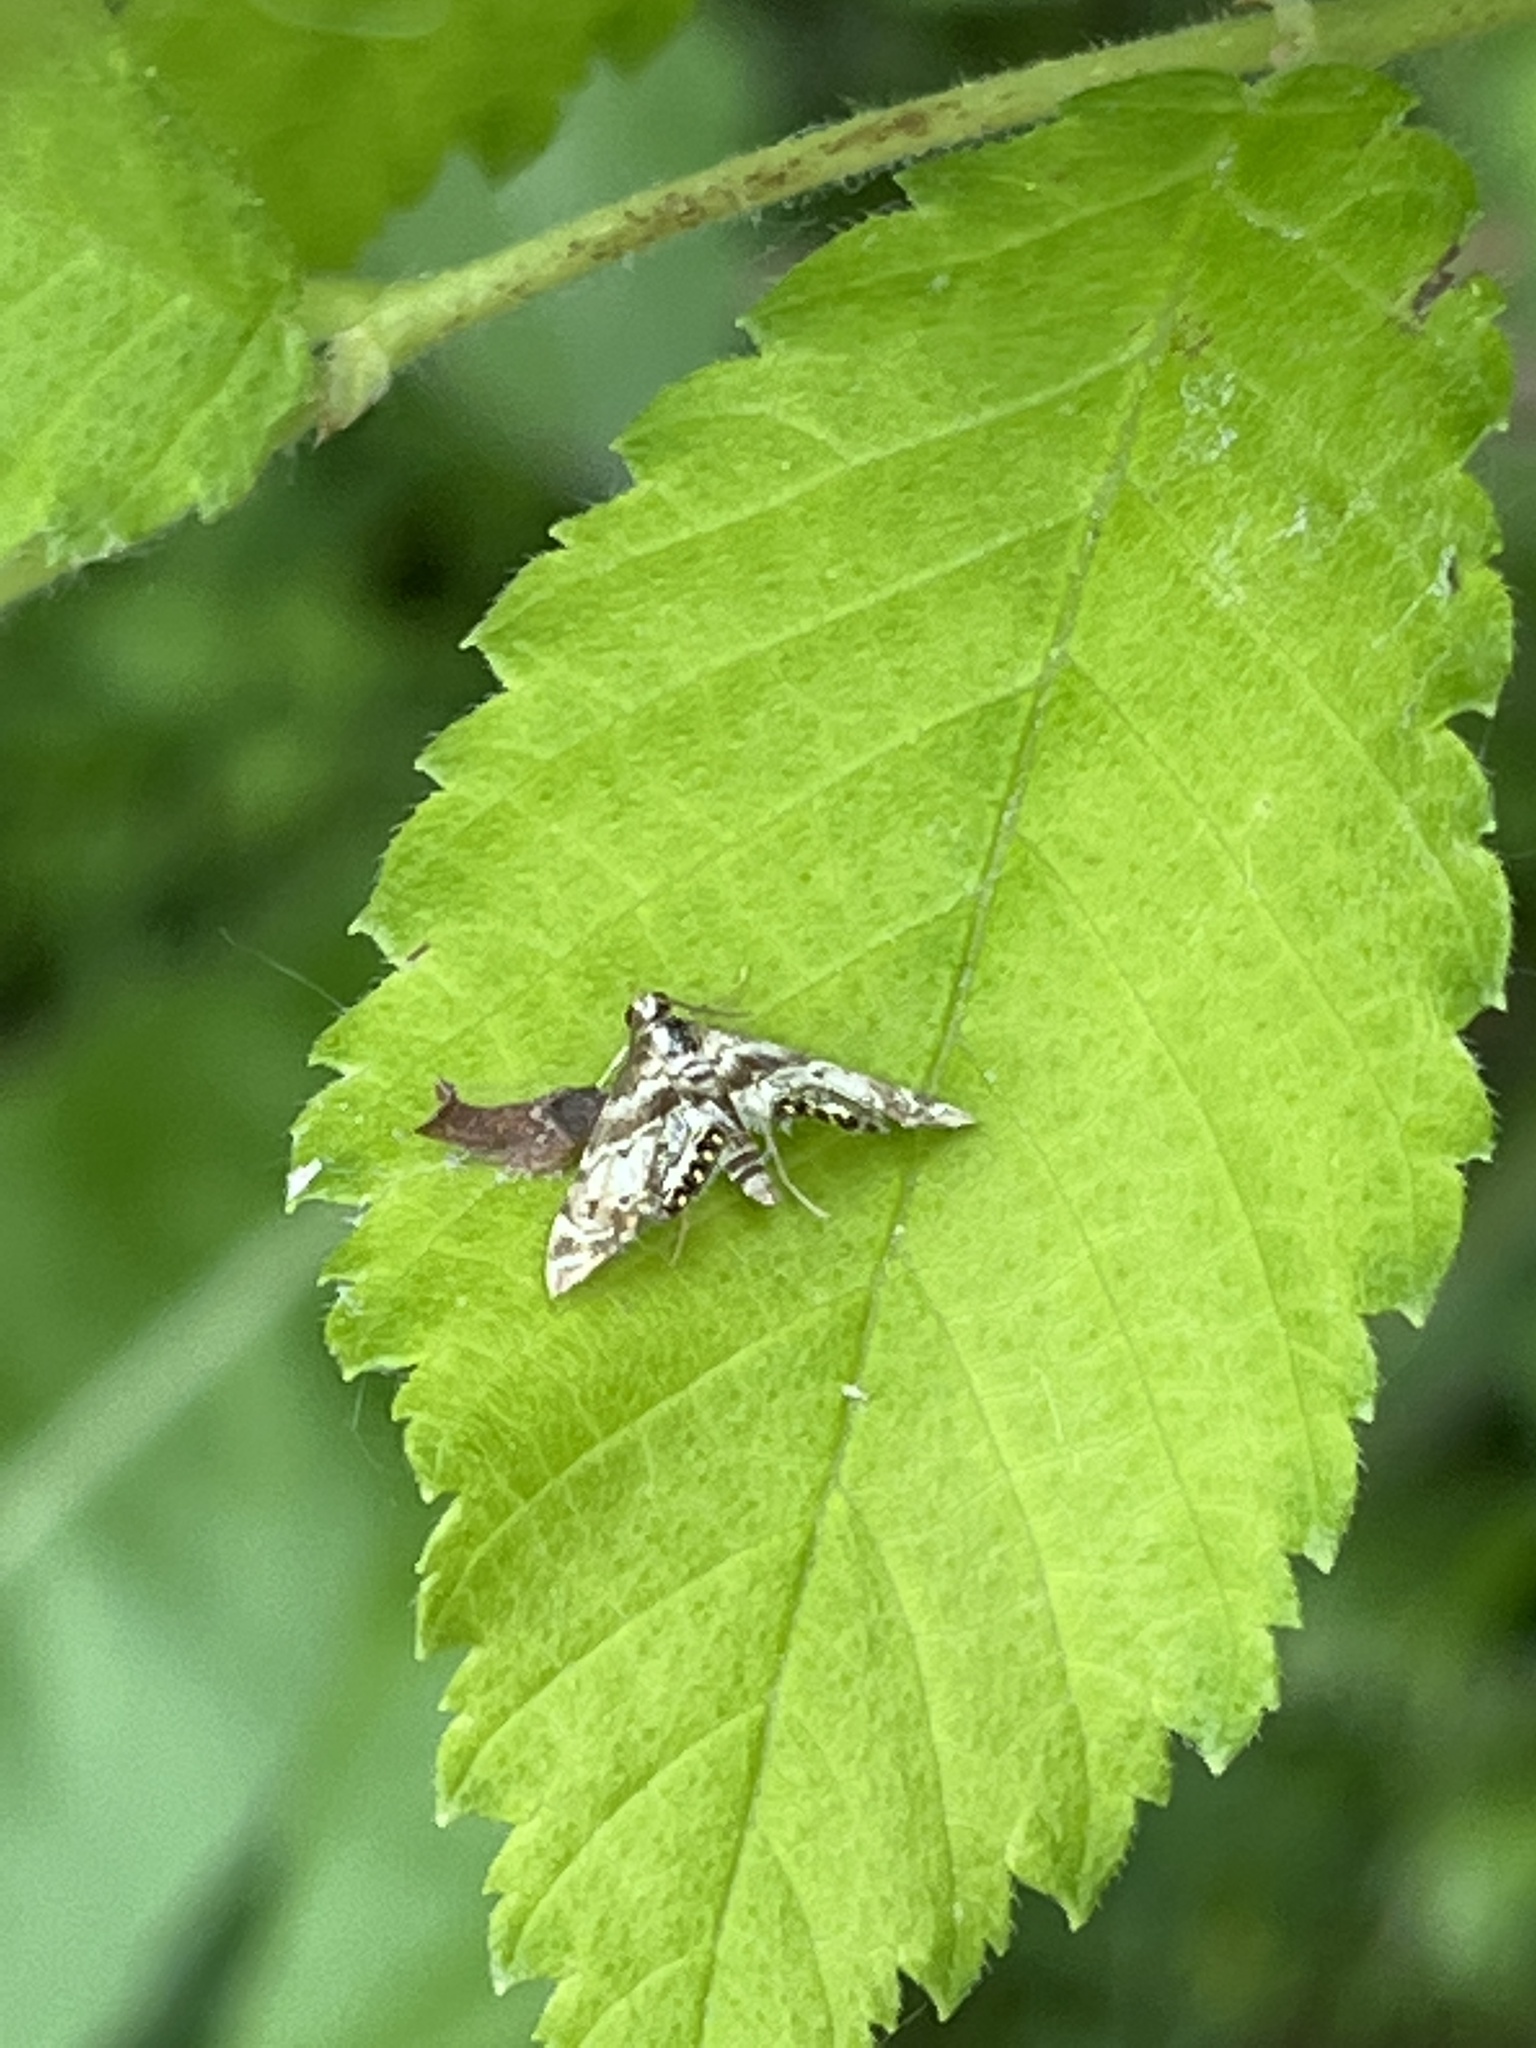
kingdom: Animalia
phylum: Arthropoda
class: Insecta
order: Lepidoptera
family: Crambidae
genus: Petrophila
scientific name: Petrophila fulicalis
